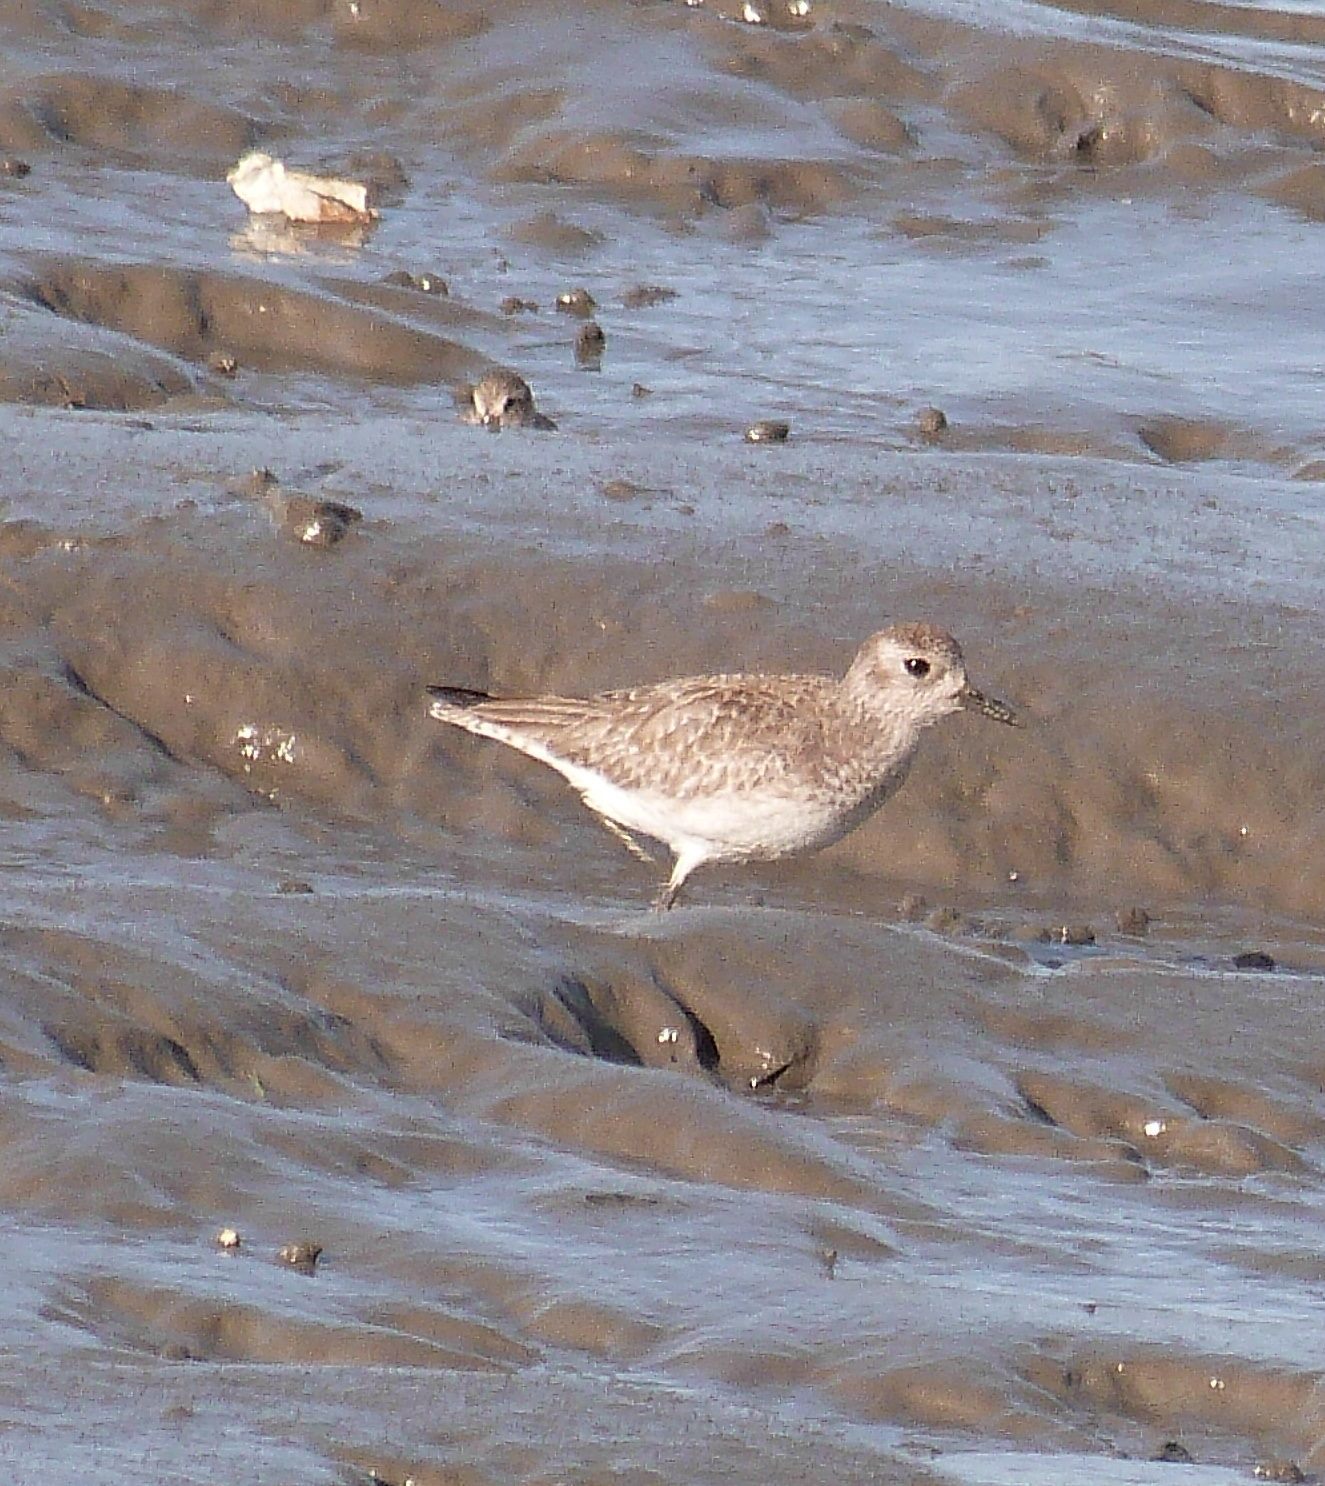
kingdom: Animalia
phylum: Chordata
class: Aves
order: Charadriiformes
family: Charadriidae
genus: Pluvialis
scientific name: Pluvialis squatarola
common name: Grey plover
